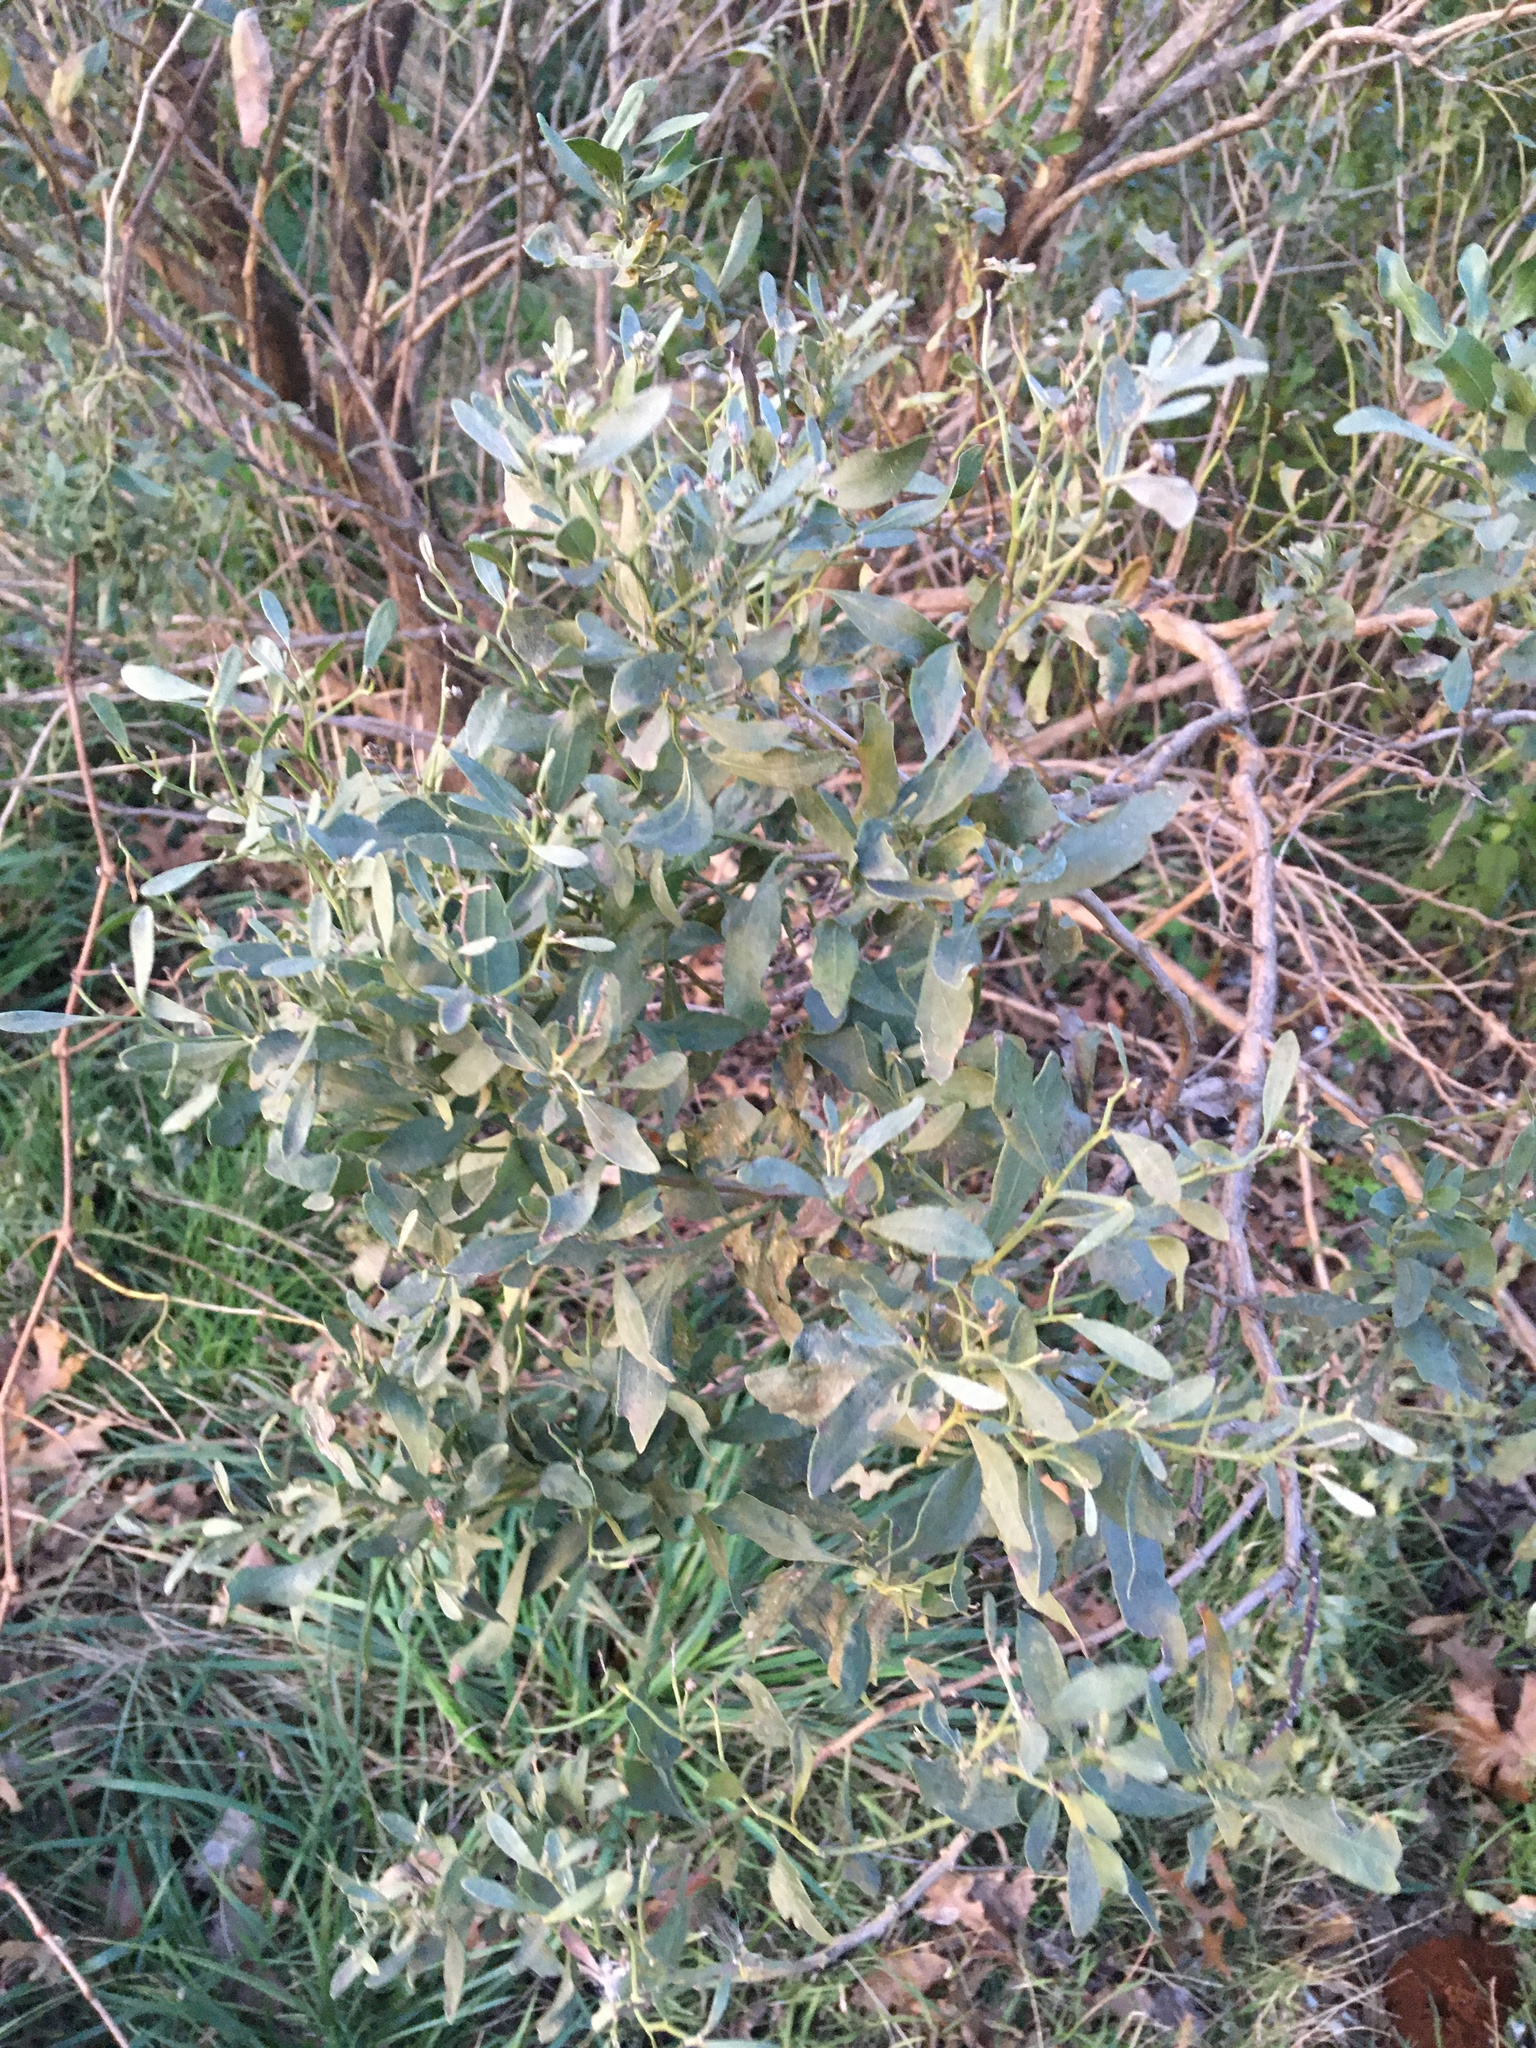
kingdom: Plantae
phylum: Tracheophyta
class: Magnoliopsida
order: Asterales
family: Asteraceae
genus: Baccharis
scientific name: Baccharis halimifolia
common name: Eastern baccharis
